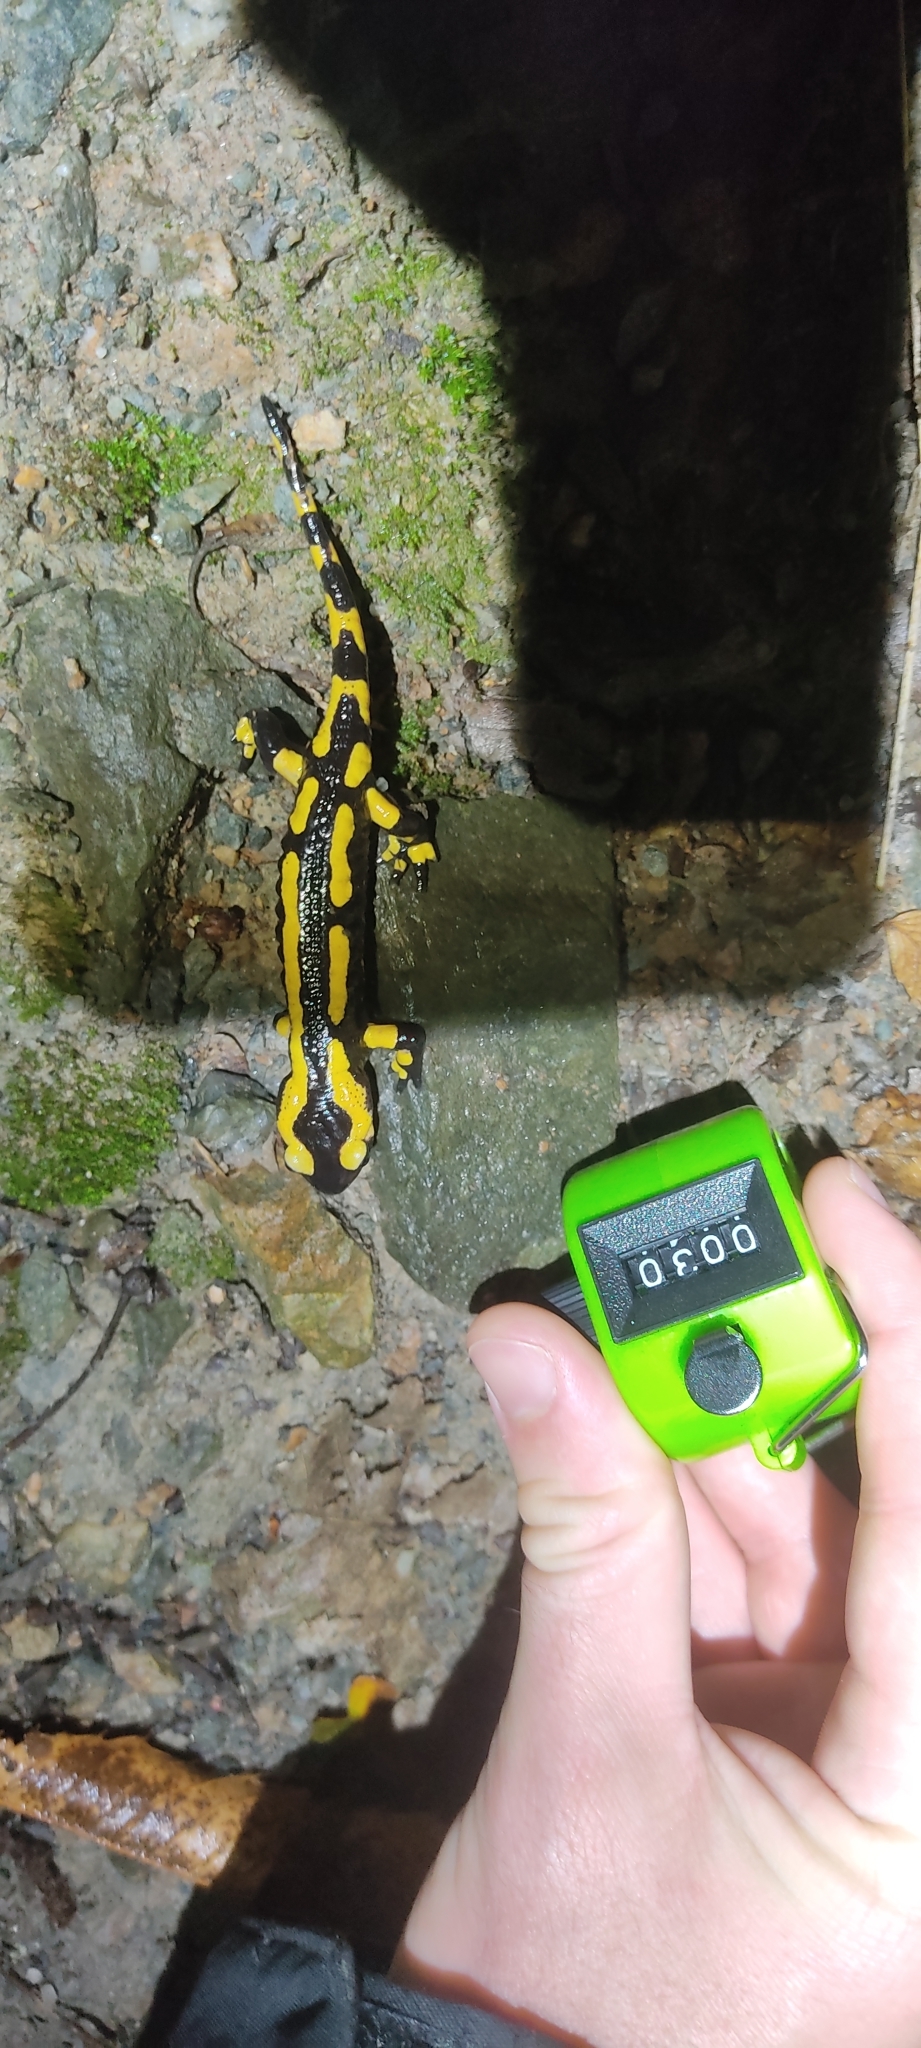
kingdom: Animalia
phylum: Chordata
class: Amphibia
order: Caudata
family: Salamandridae
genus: Salamandra
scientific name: Salamandra salamandra
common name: Fire salamander
